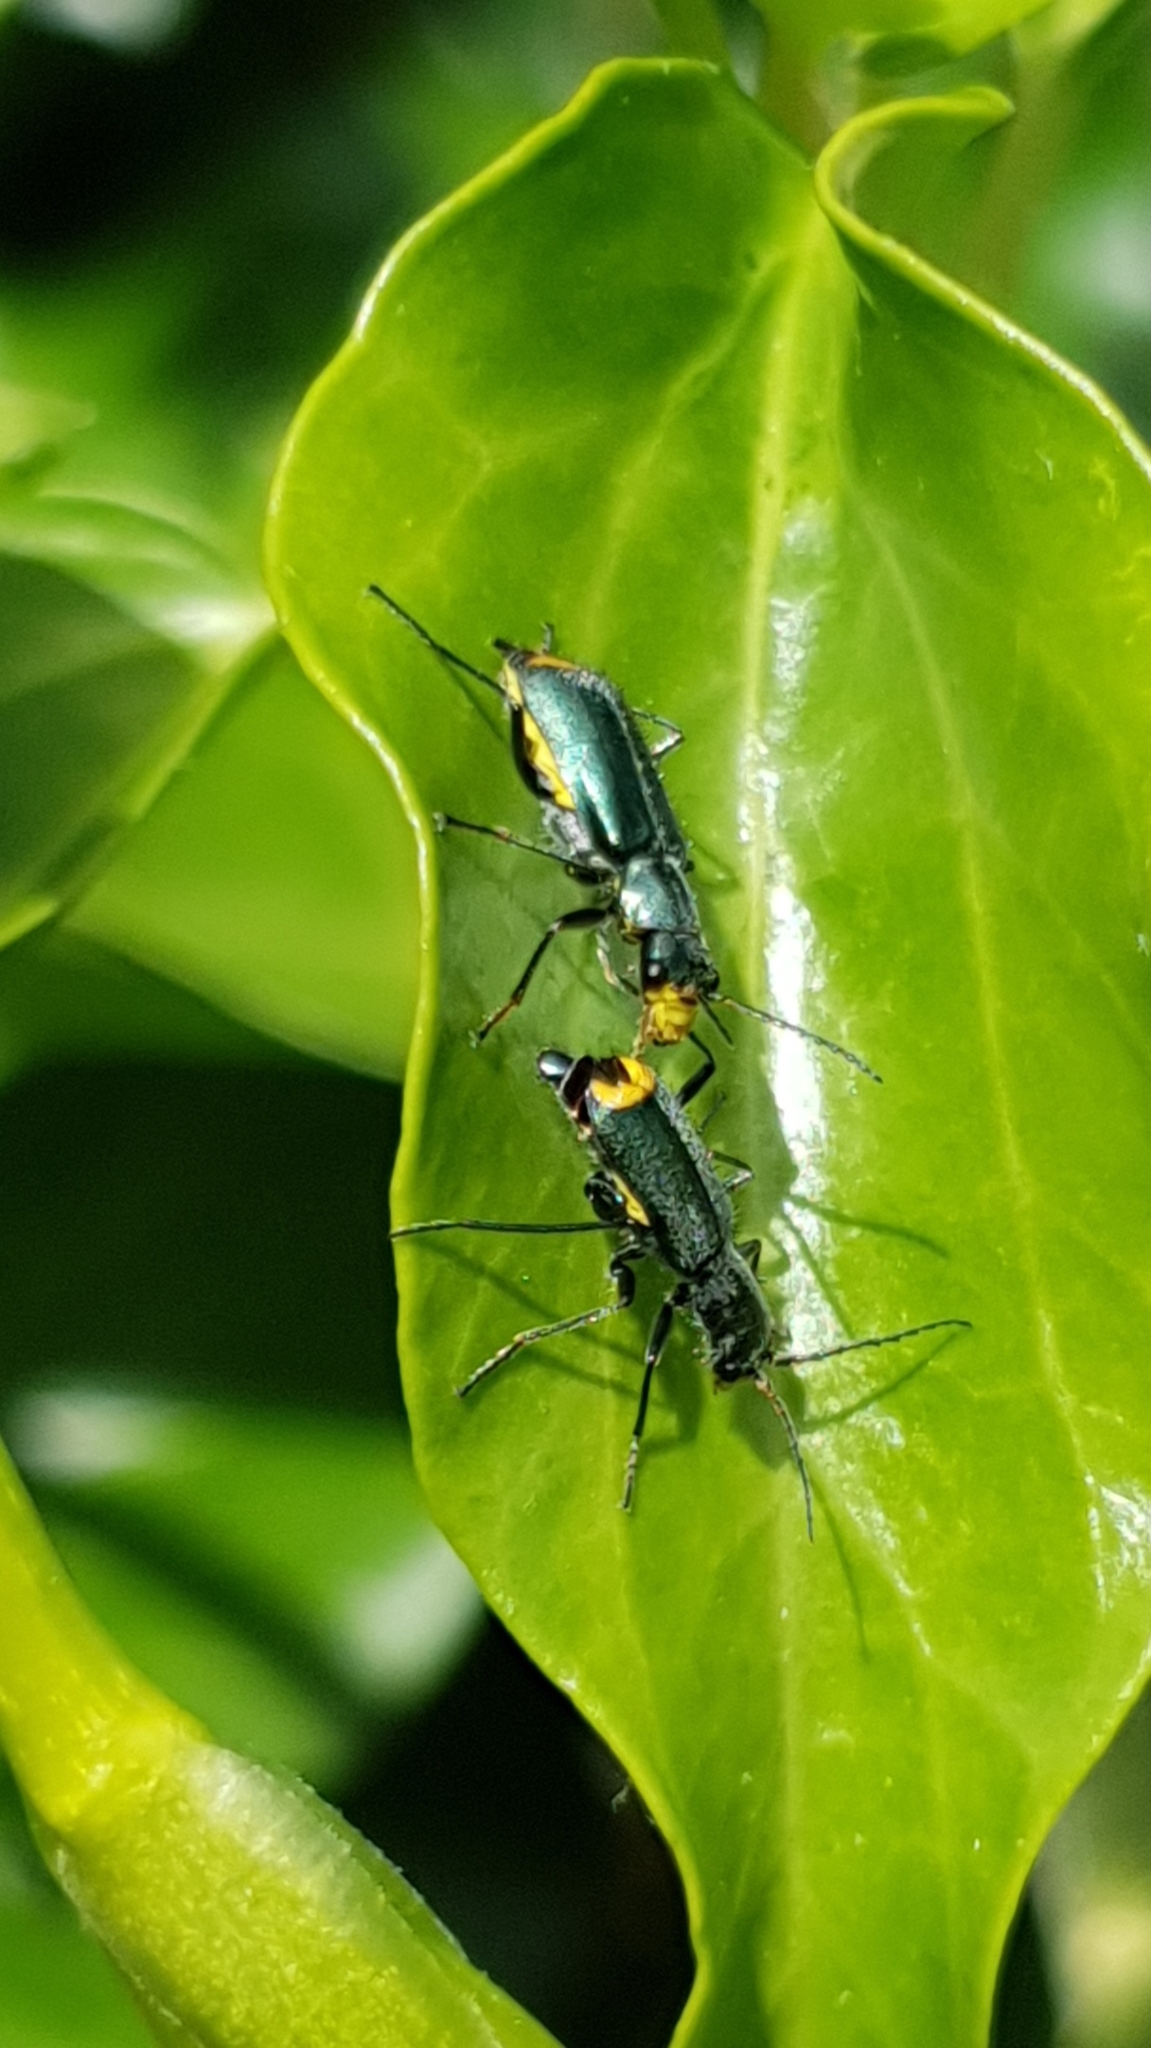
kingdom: Animalia
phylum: Arthropoda
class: Insecta
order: Coleoptera
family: Malachiidae
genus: Clanoptilus
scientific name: Clanoptilus marginellus
